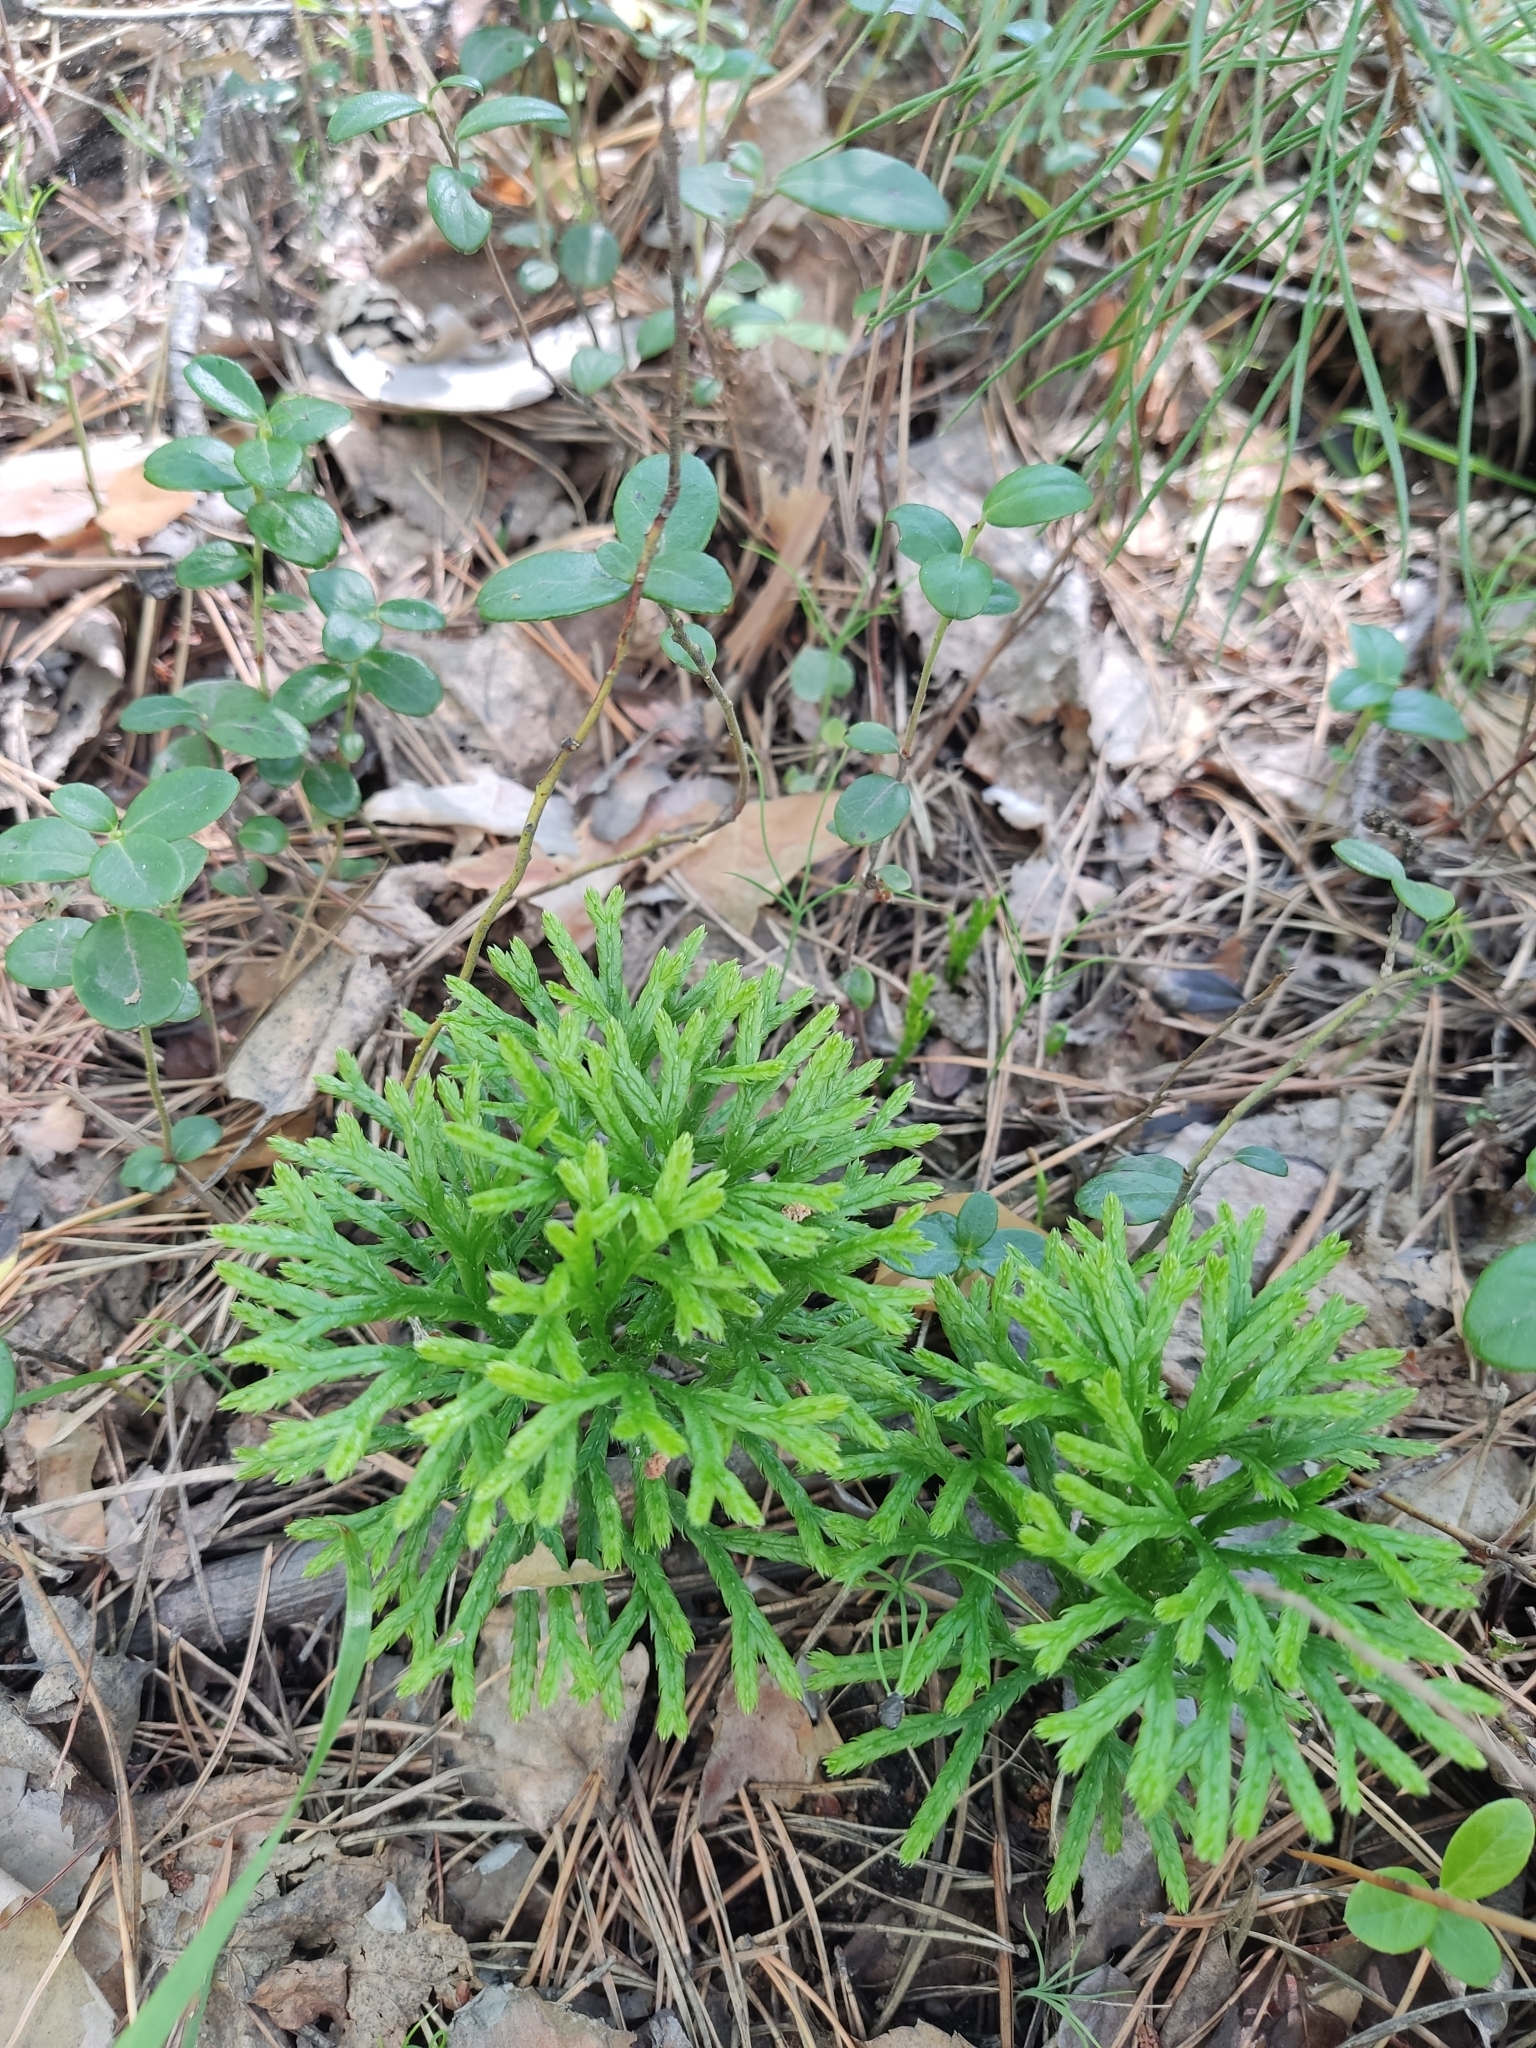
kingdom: Plantae
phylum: Tracheophyta
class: Lycopodiopsida
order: Lycopodiales
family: Lycopodiaceae
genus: Diphasiastrum
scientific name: Diphasiastrum complanatum
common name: Northern running-pine
